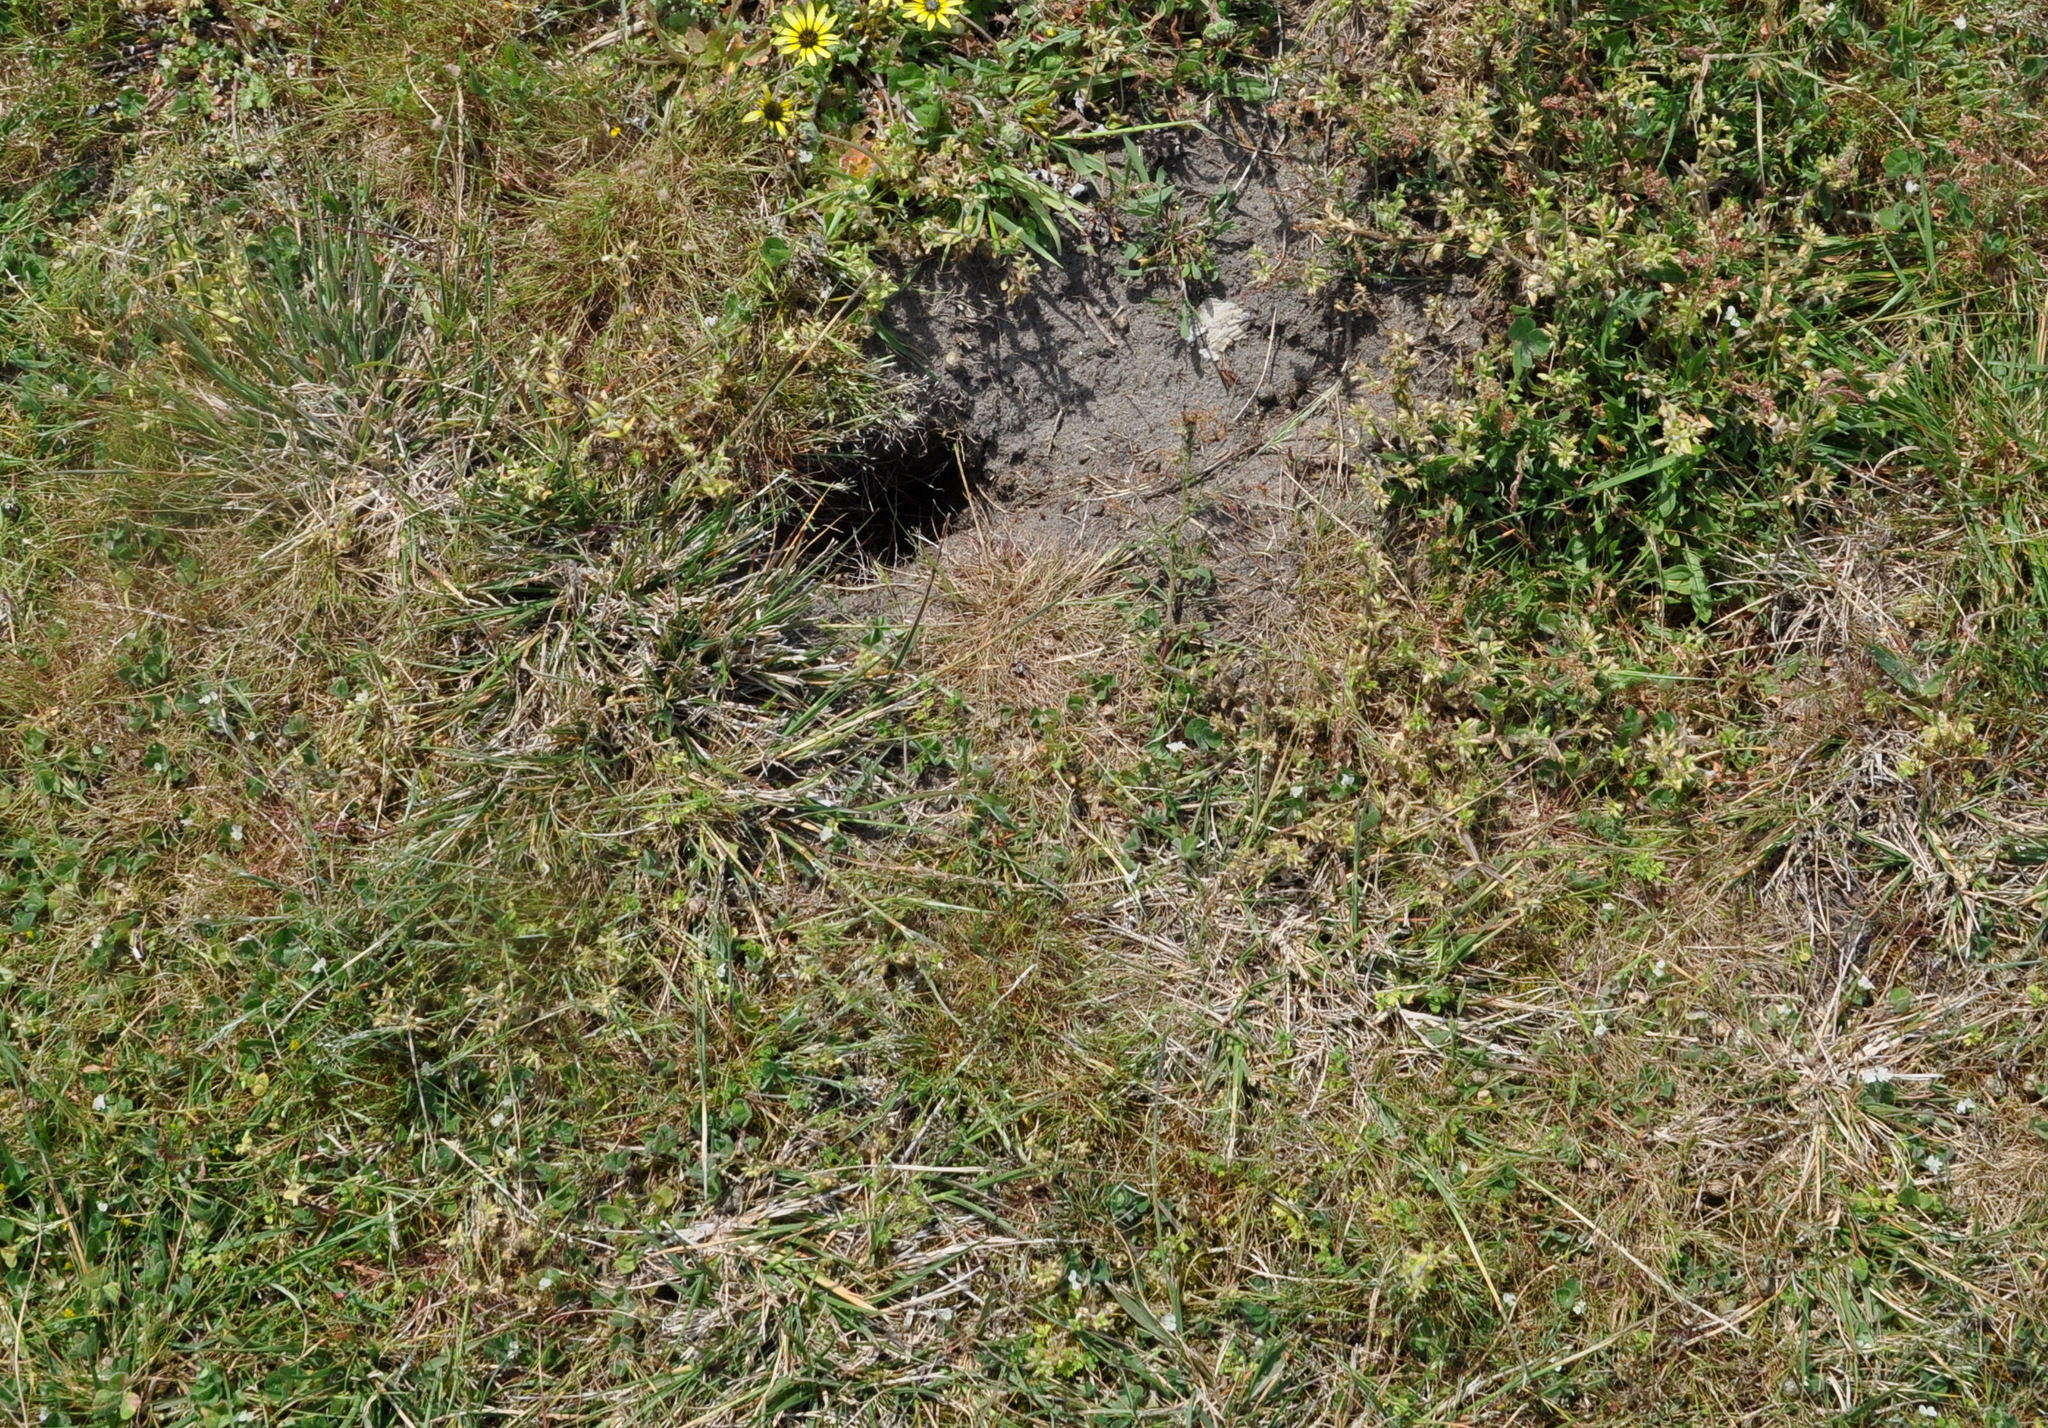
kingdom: Animalia
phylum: Chordata
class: Mammalia
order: Lagomorpha
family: Leporidae
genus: Oryctolagus
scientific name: Oryctolagus cuniculus
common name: European rabbit
